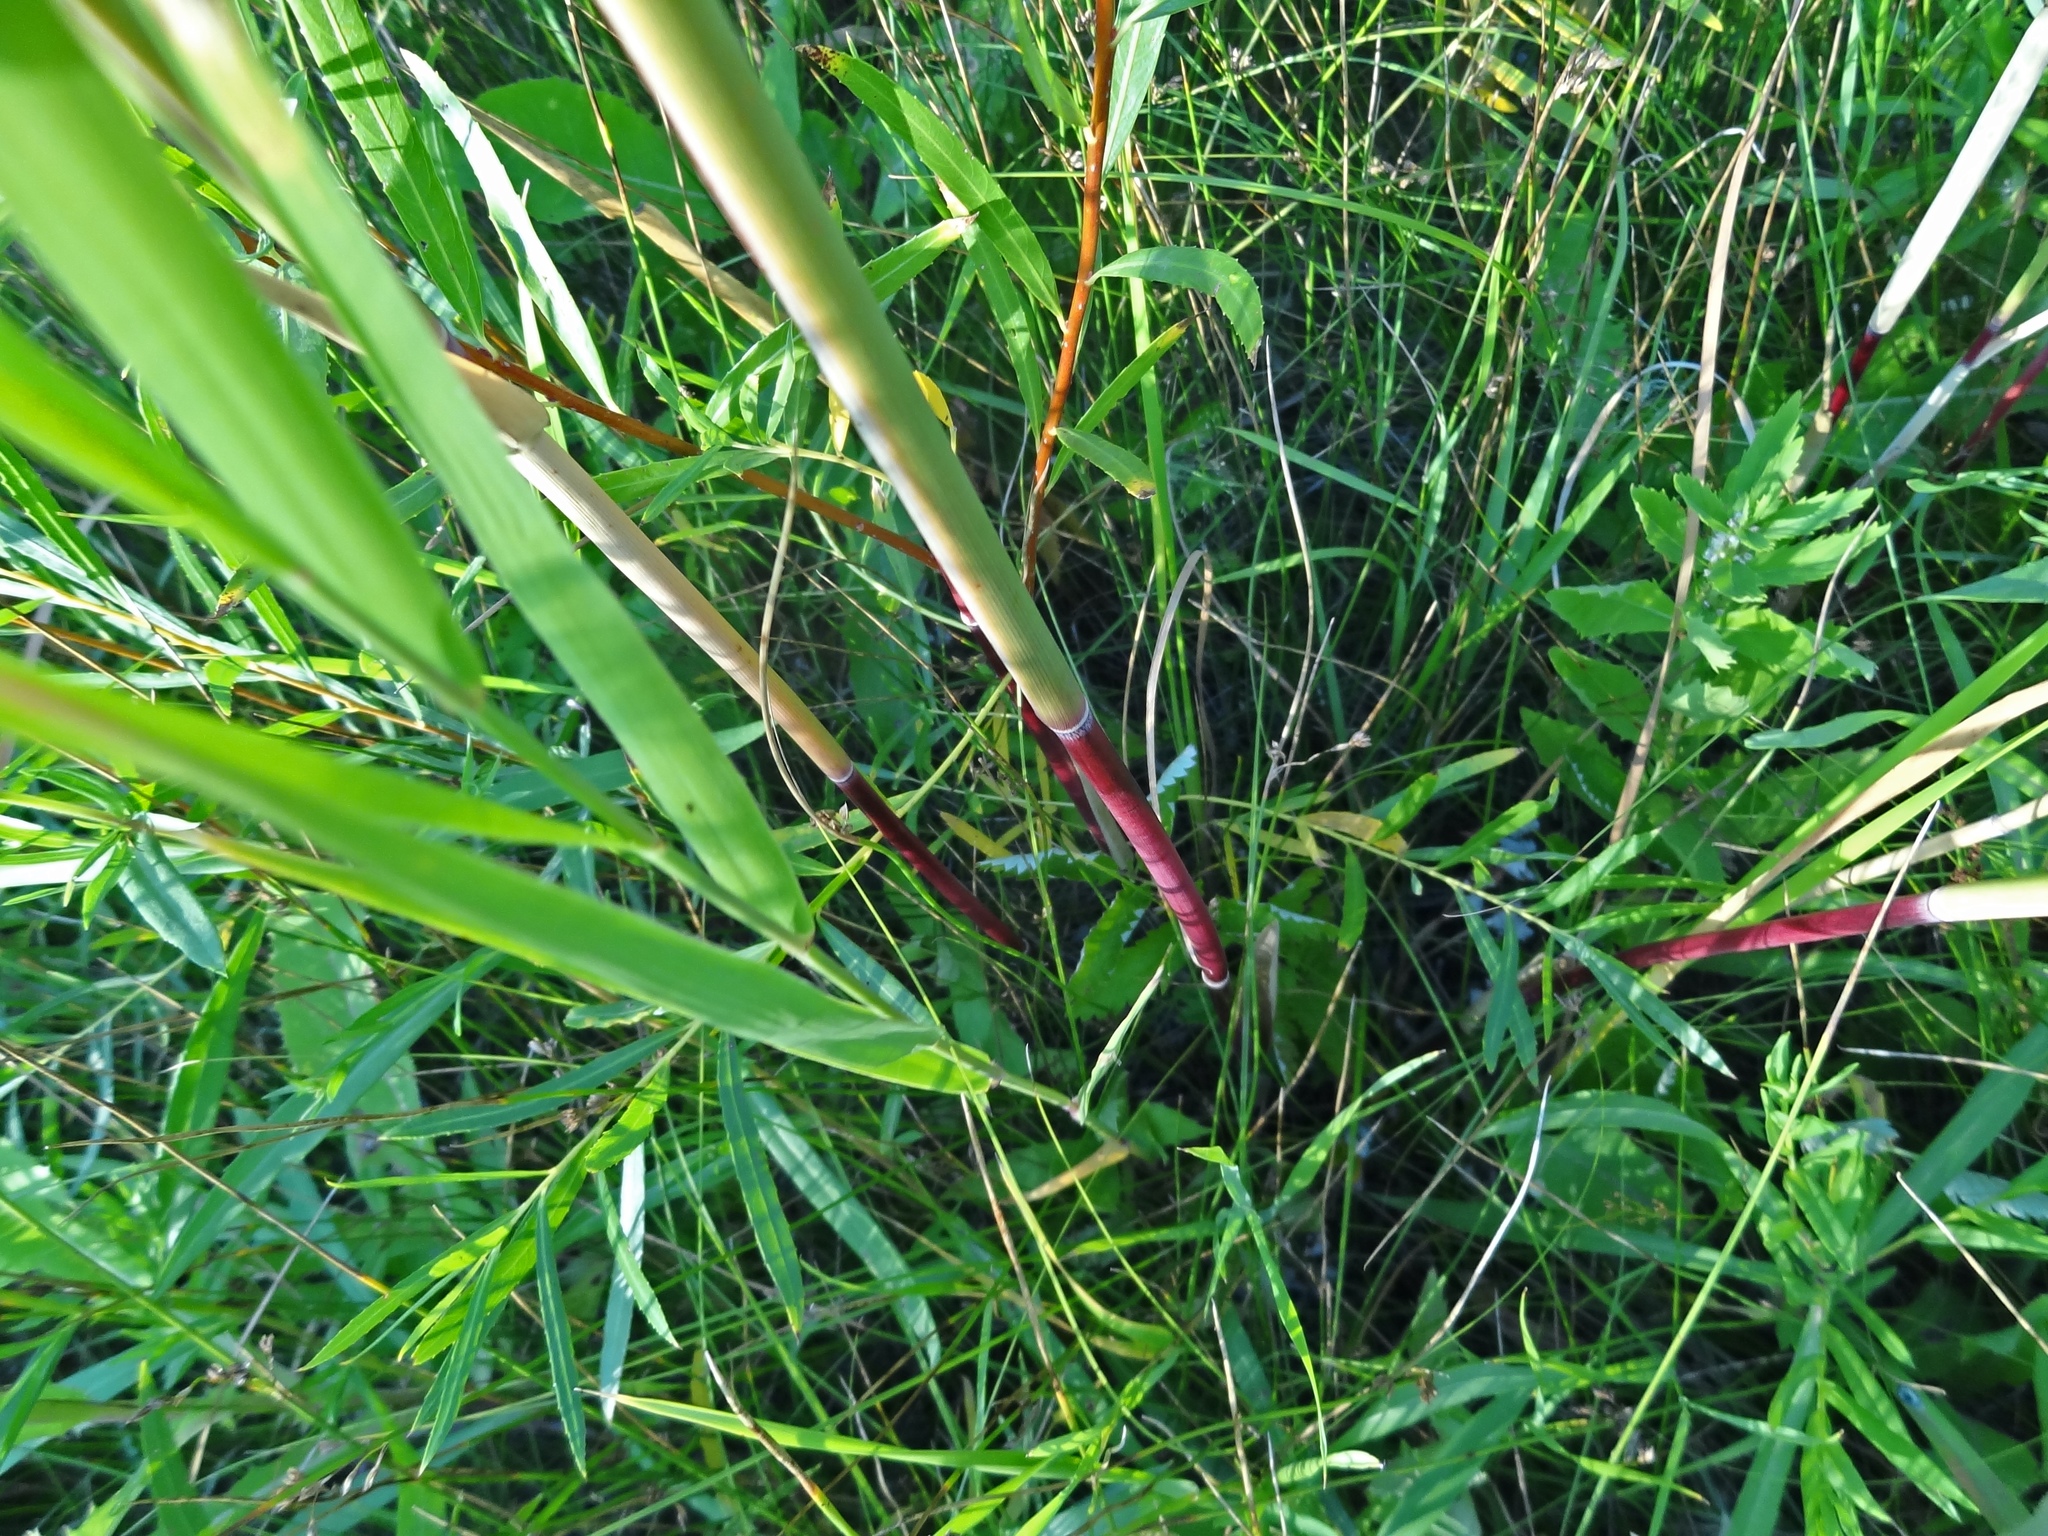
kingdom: Plantae
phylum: Tracheophyta
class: Liliopsida
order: Poales
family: Poaceae
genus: Phragmites
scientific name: Phragmites australis
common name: Common reed
